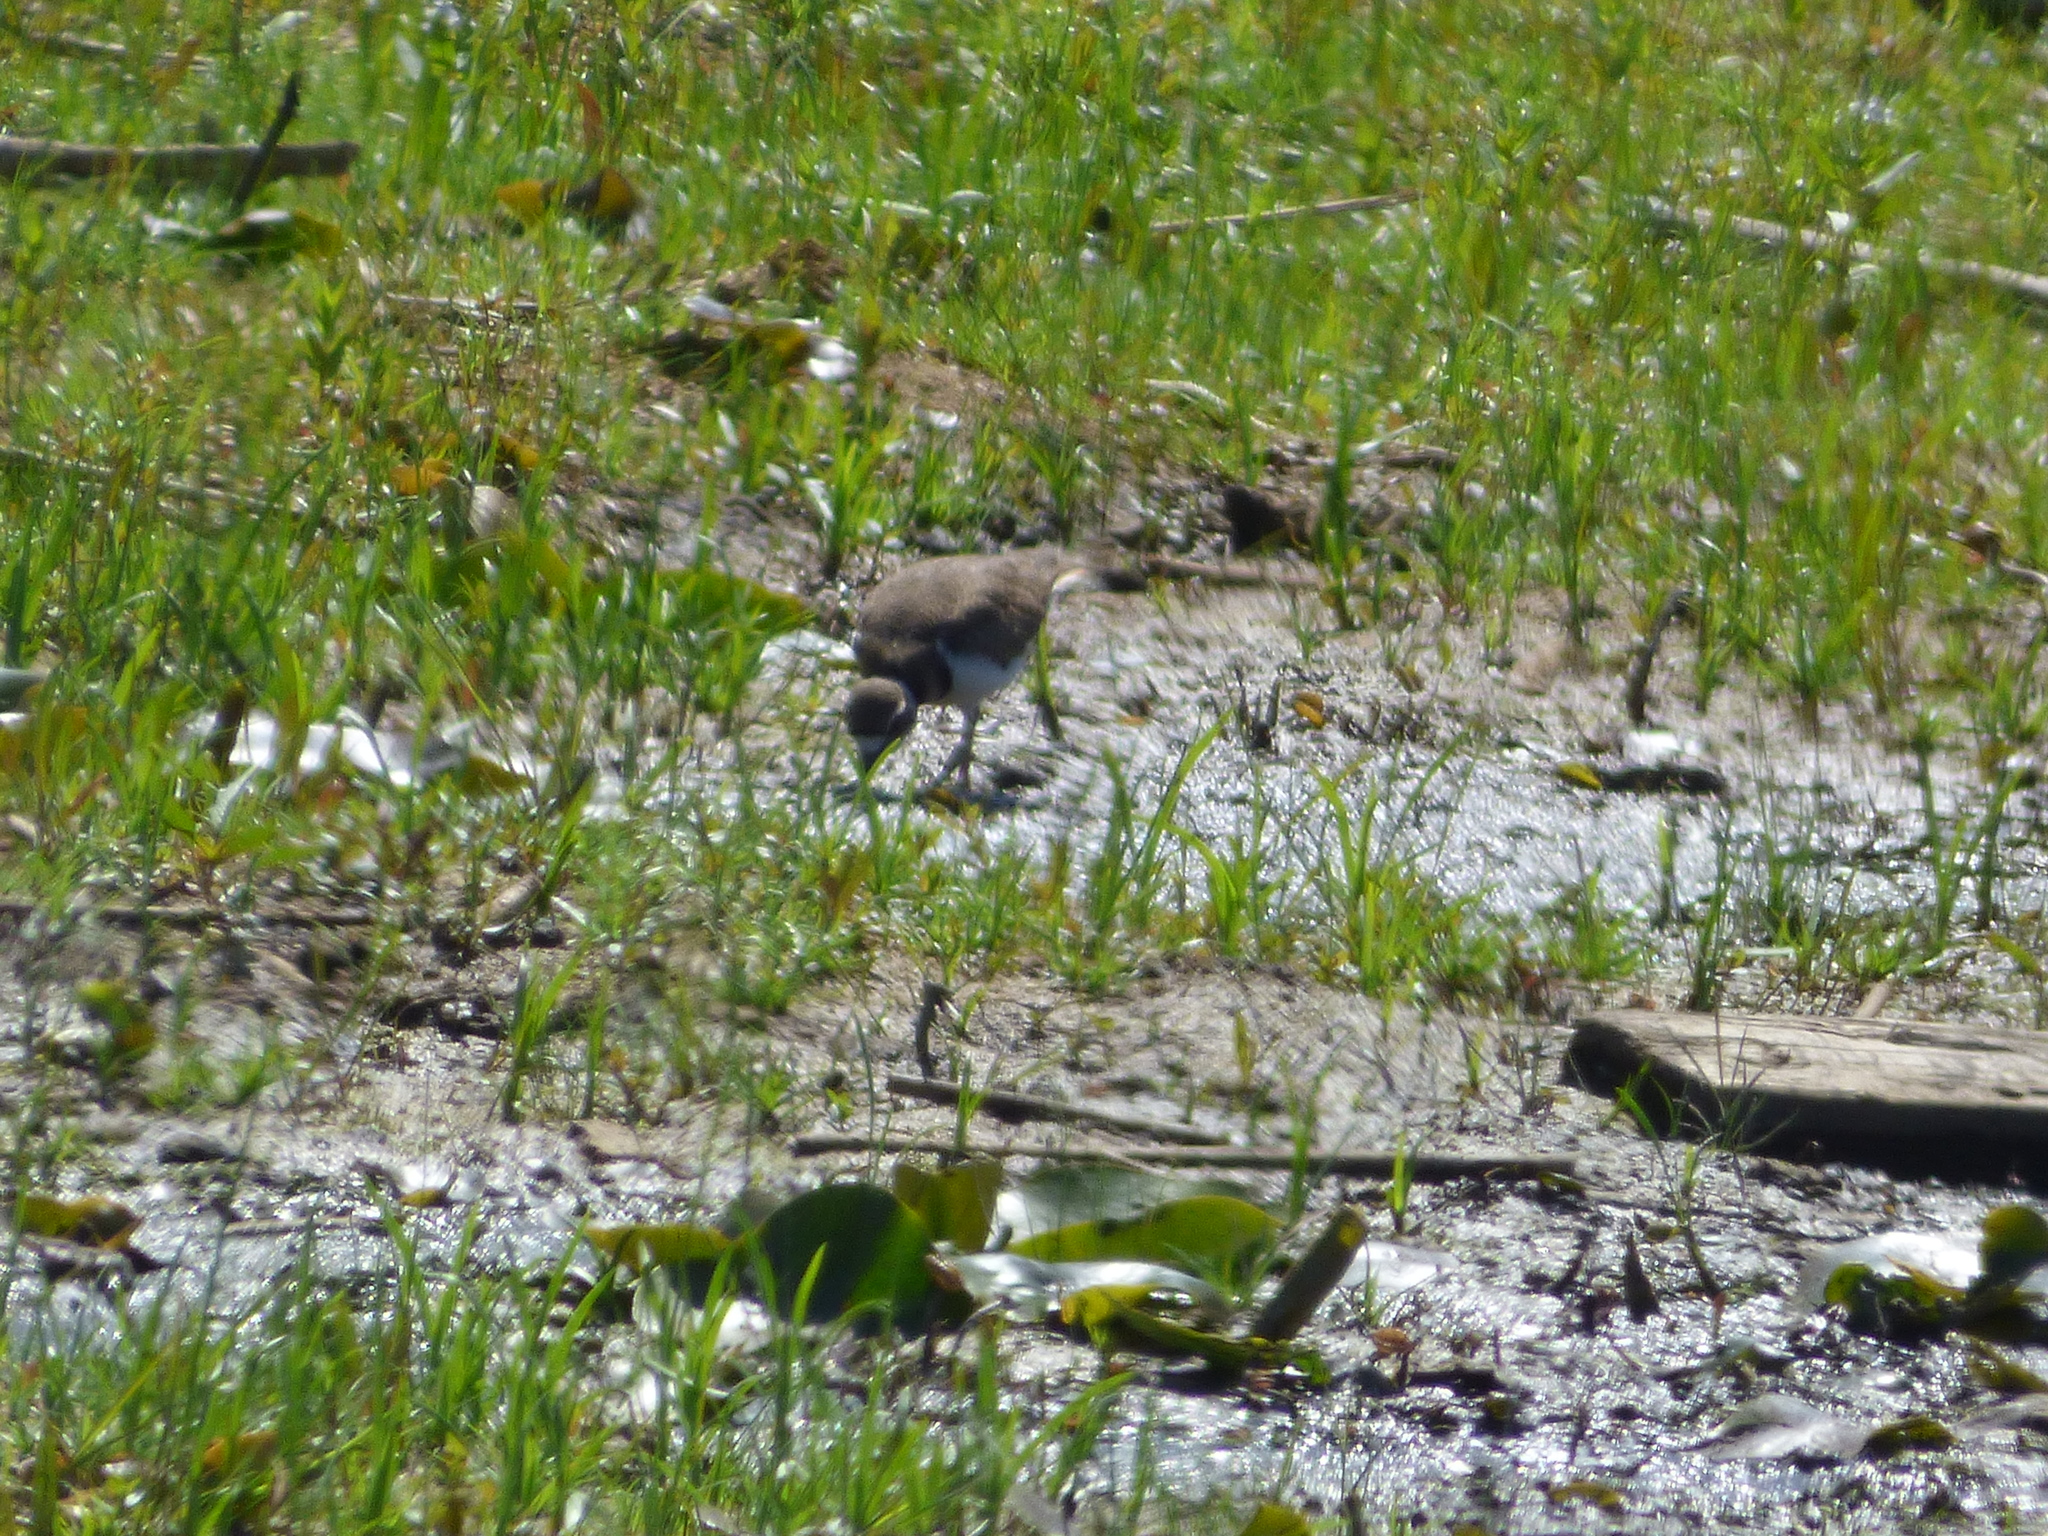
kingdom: Animalia
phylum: Chordata
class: Aves
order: Charadriiformes
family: Charadriidae
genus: Charadrius
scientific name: Charadrius vociferus
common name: Killdeer
